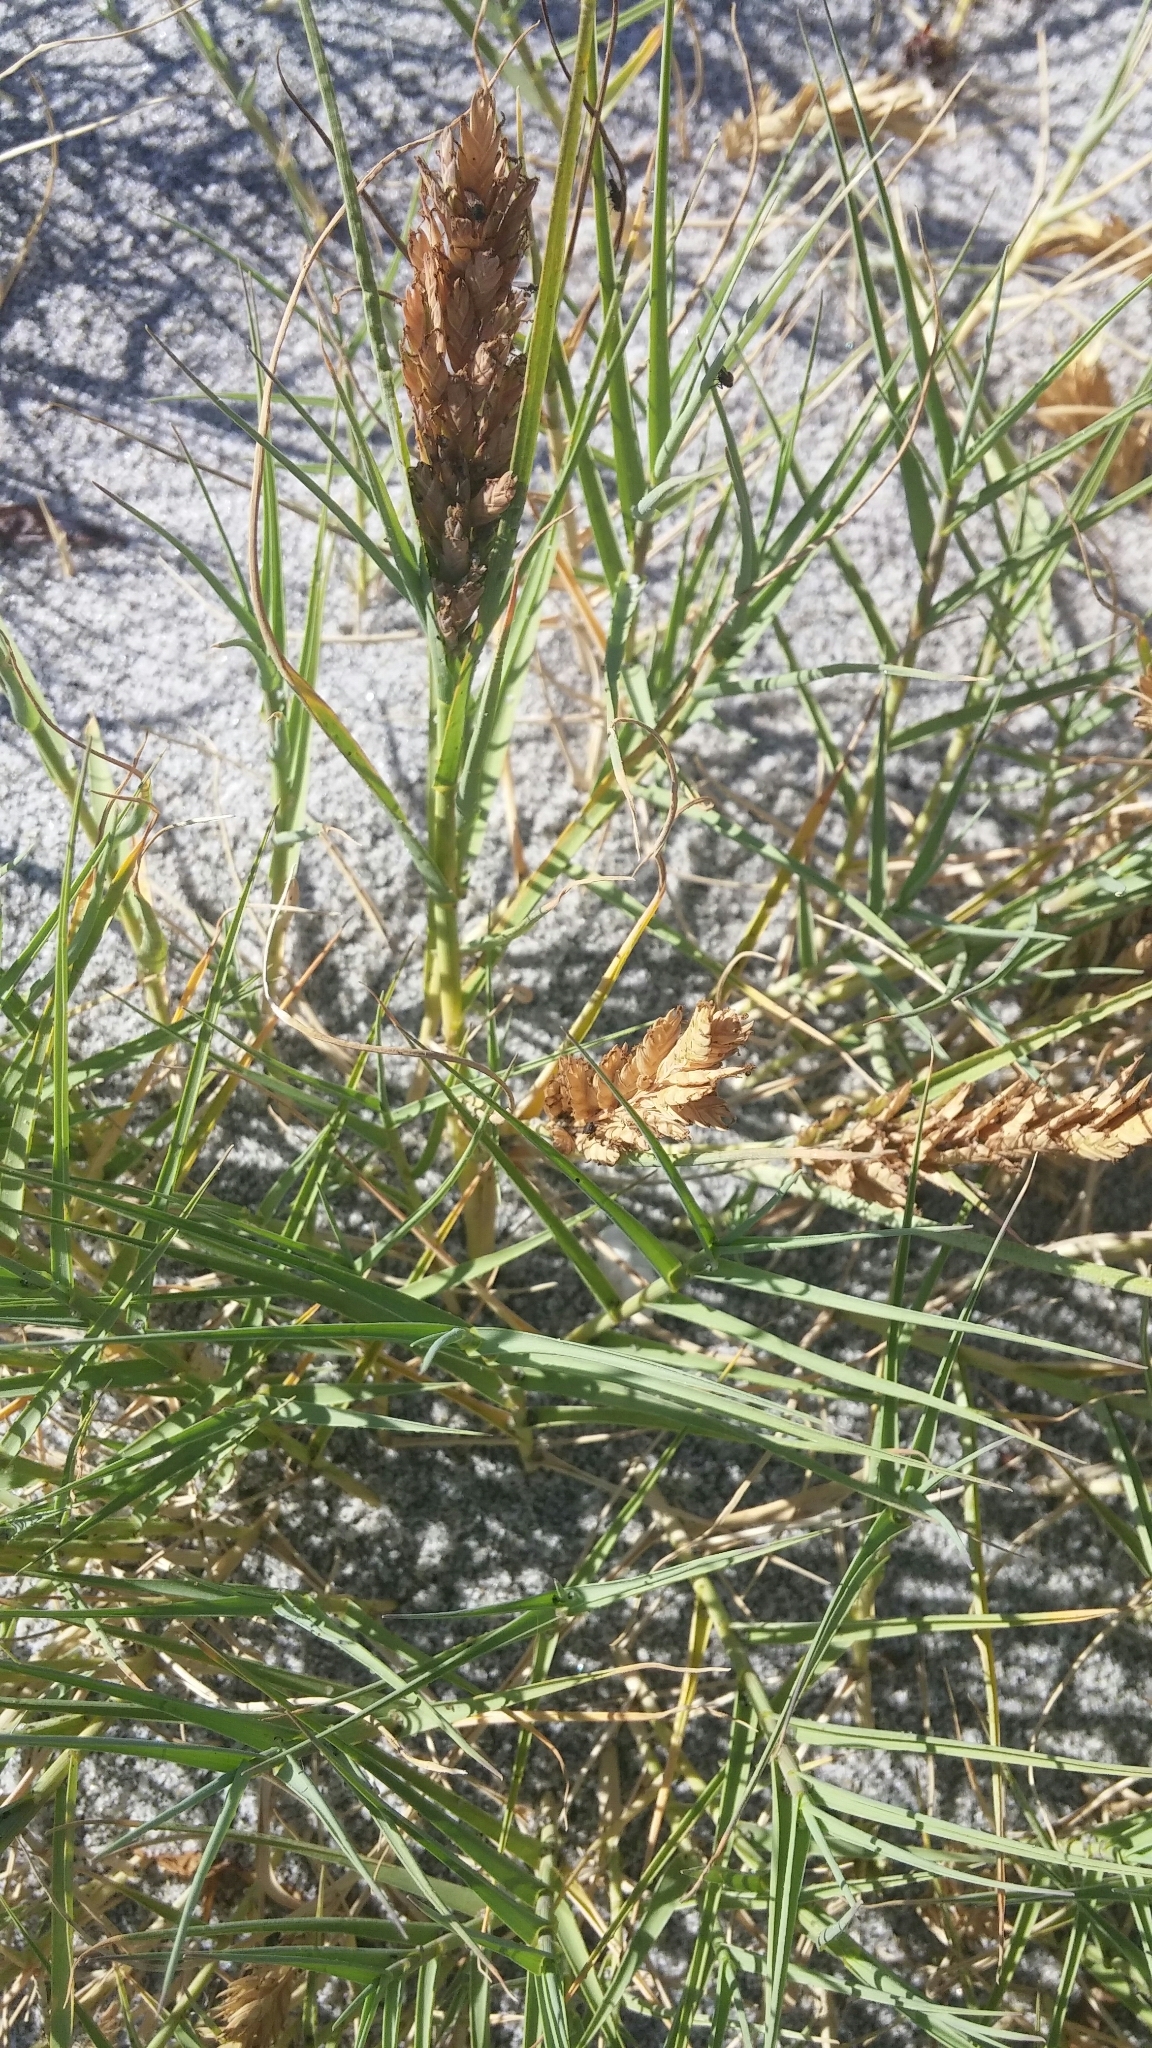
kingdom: Plantae
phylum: Tracheophyta
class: Liliopsida
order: Poales
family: Poaceae
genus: Distichlis
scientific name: Distichlis spicata
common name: Saltgrass
